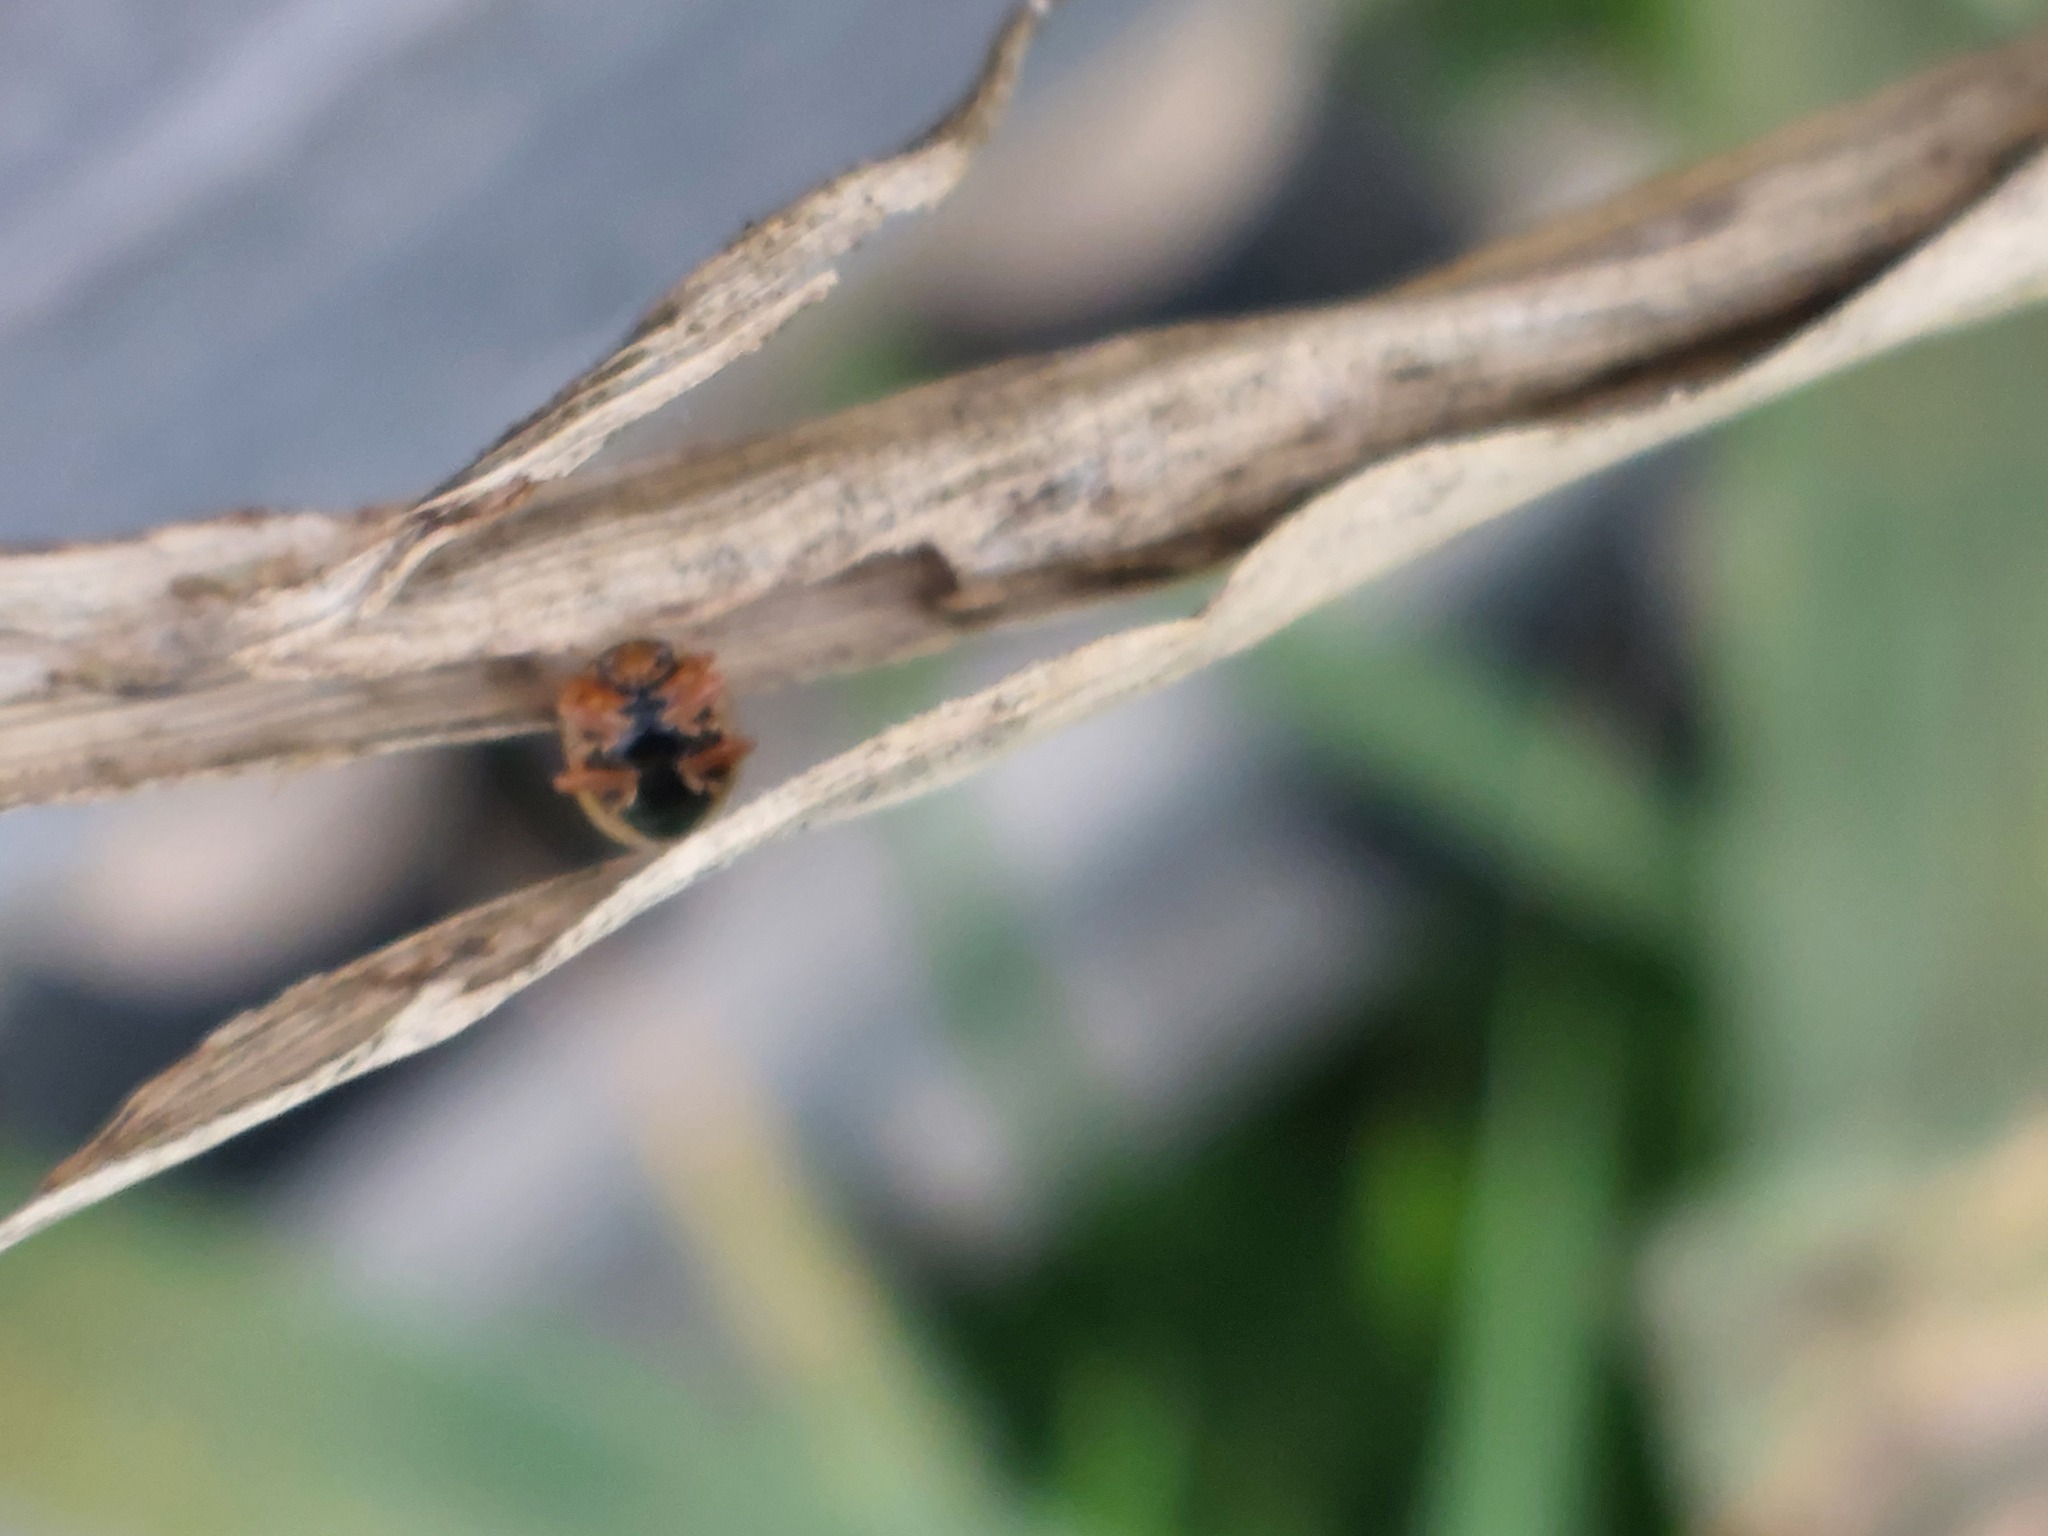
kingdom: Animalia
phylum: Arthropoda
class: Insecta
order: Coleoptera
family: Coccinellidae
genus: Anisosticta
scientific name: Anisosticta novemdecimpunctata
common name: Water ladybird
